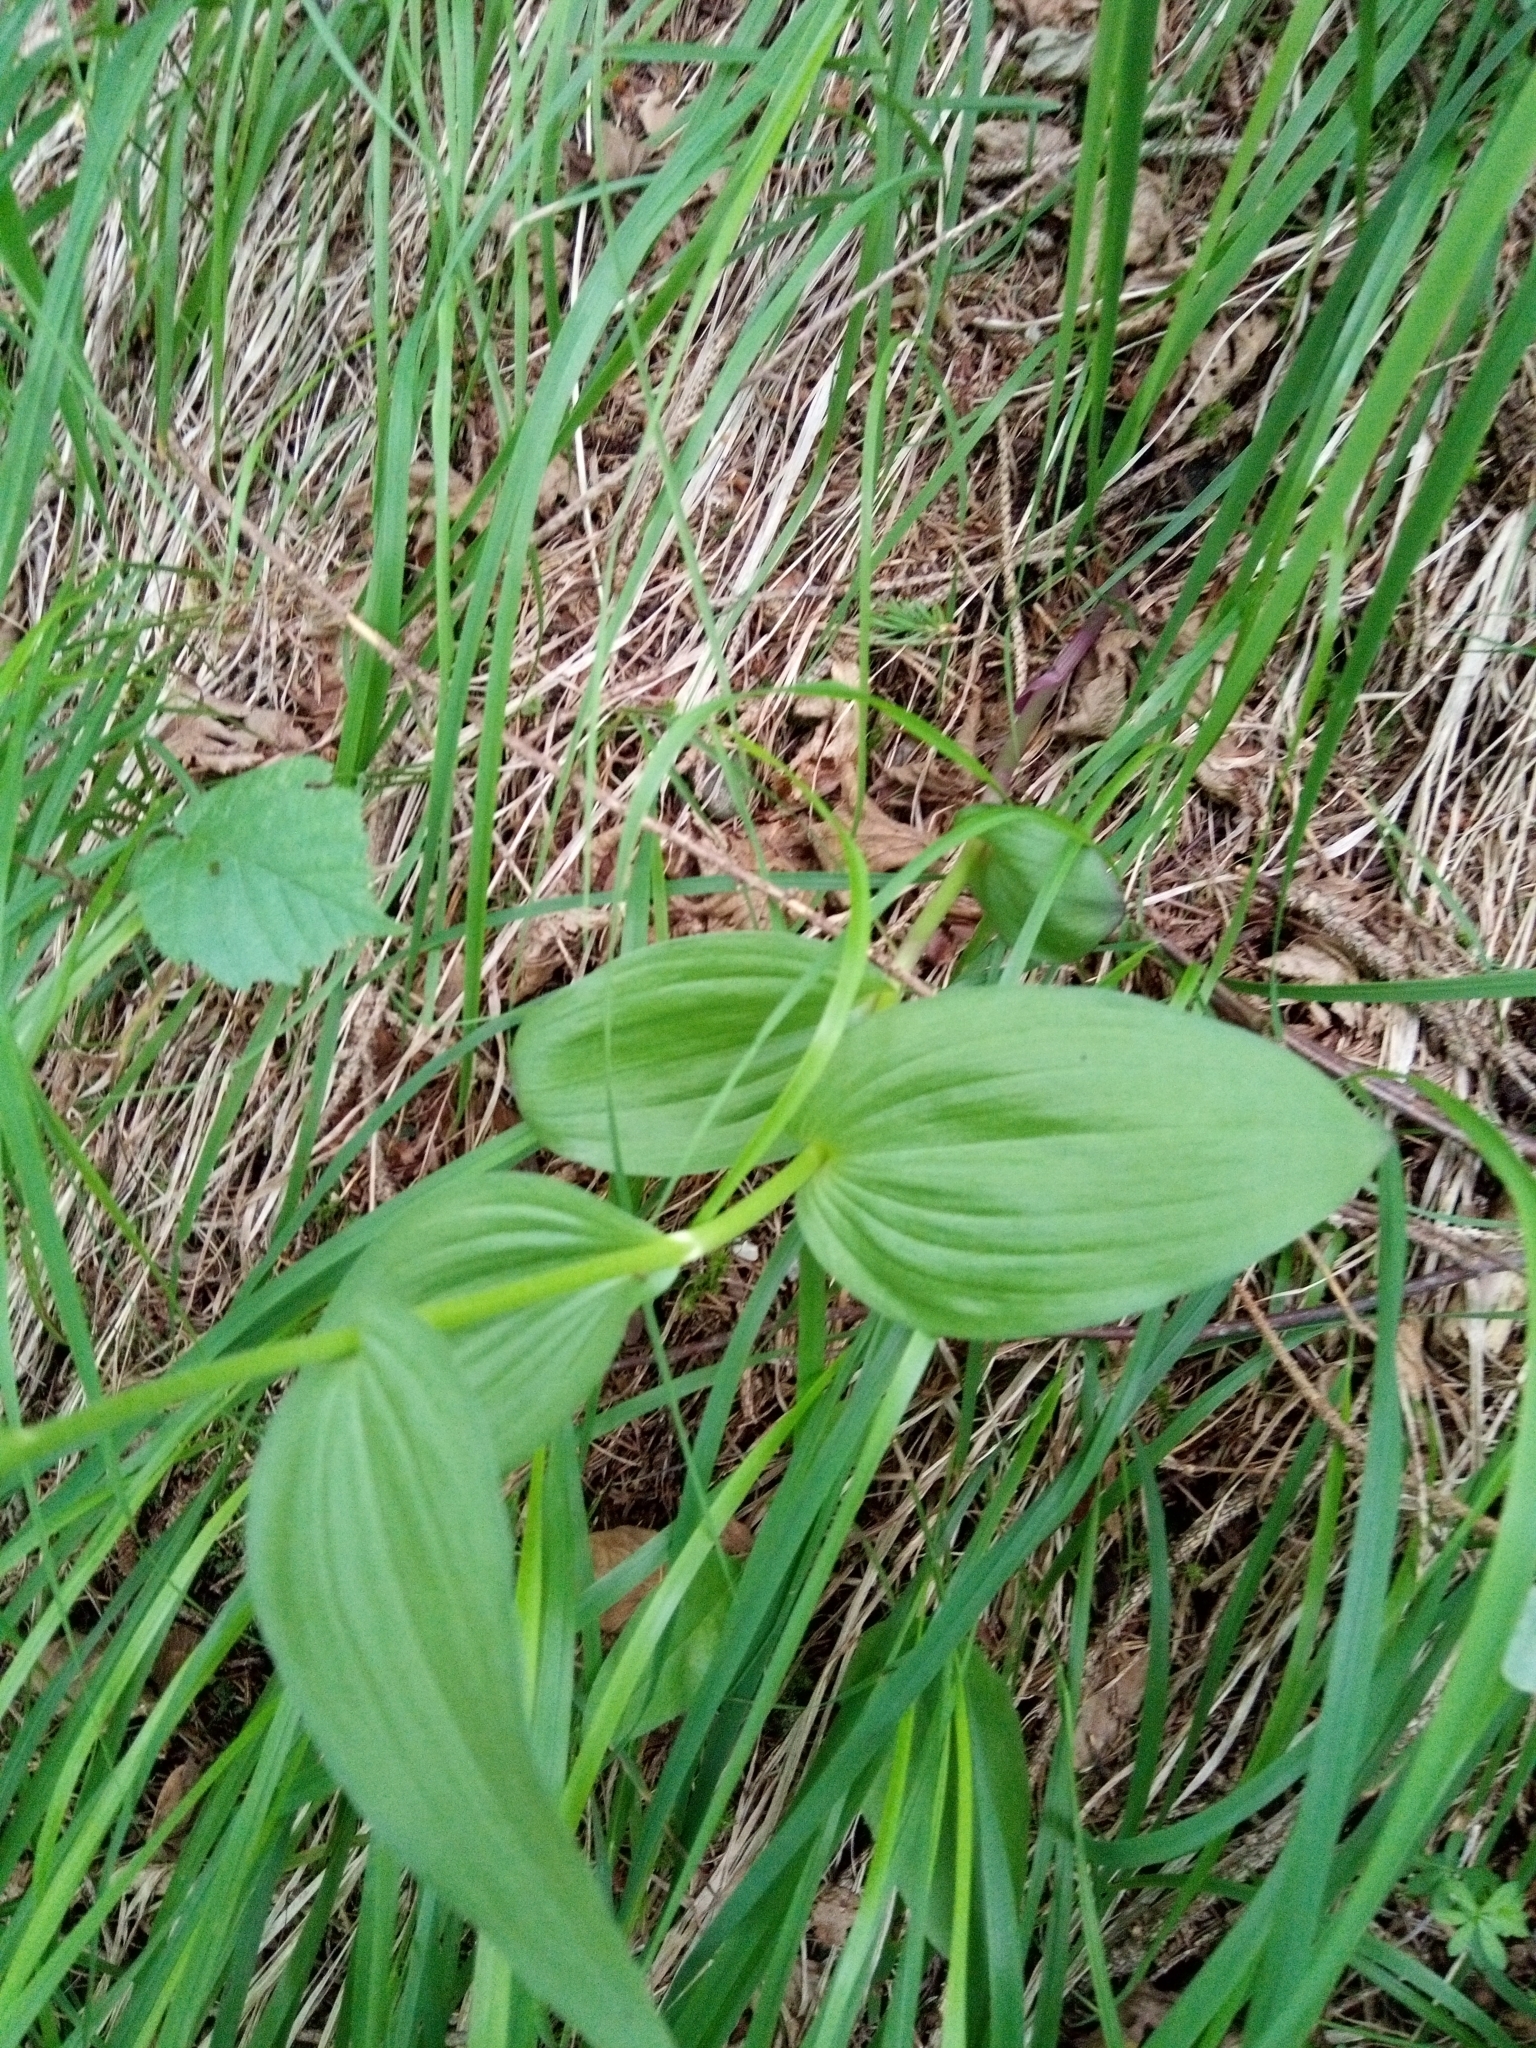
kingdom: Plantae
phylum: Tracheophyta
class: Liliopsida
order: Asparagales
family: Orchidaceae
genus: Epipactis
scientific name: Epipactis atrorubens
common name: Dark-red helleborine
